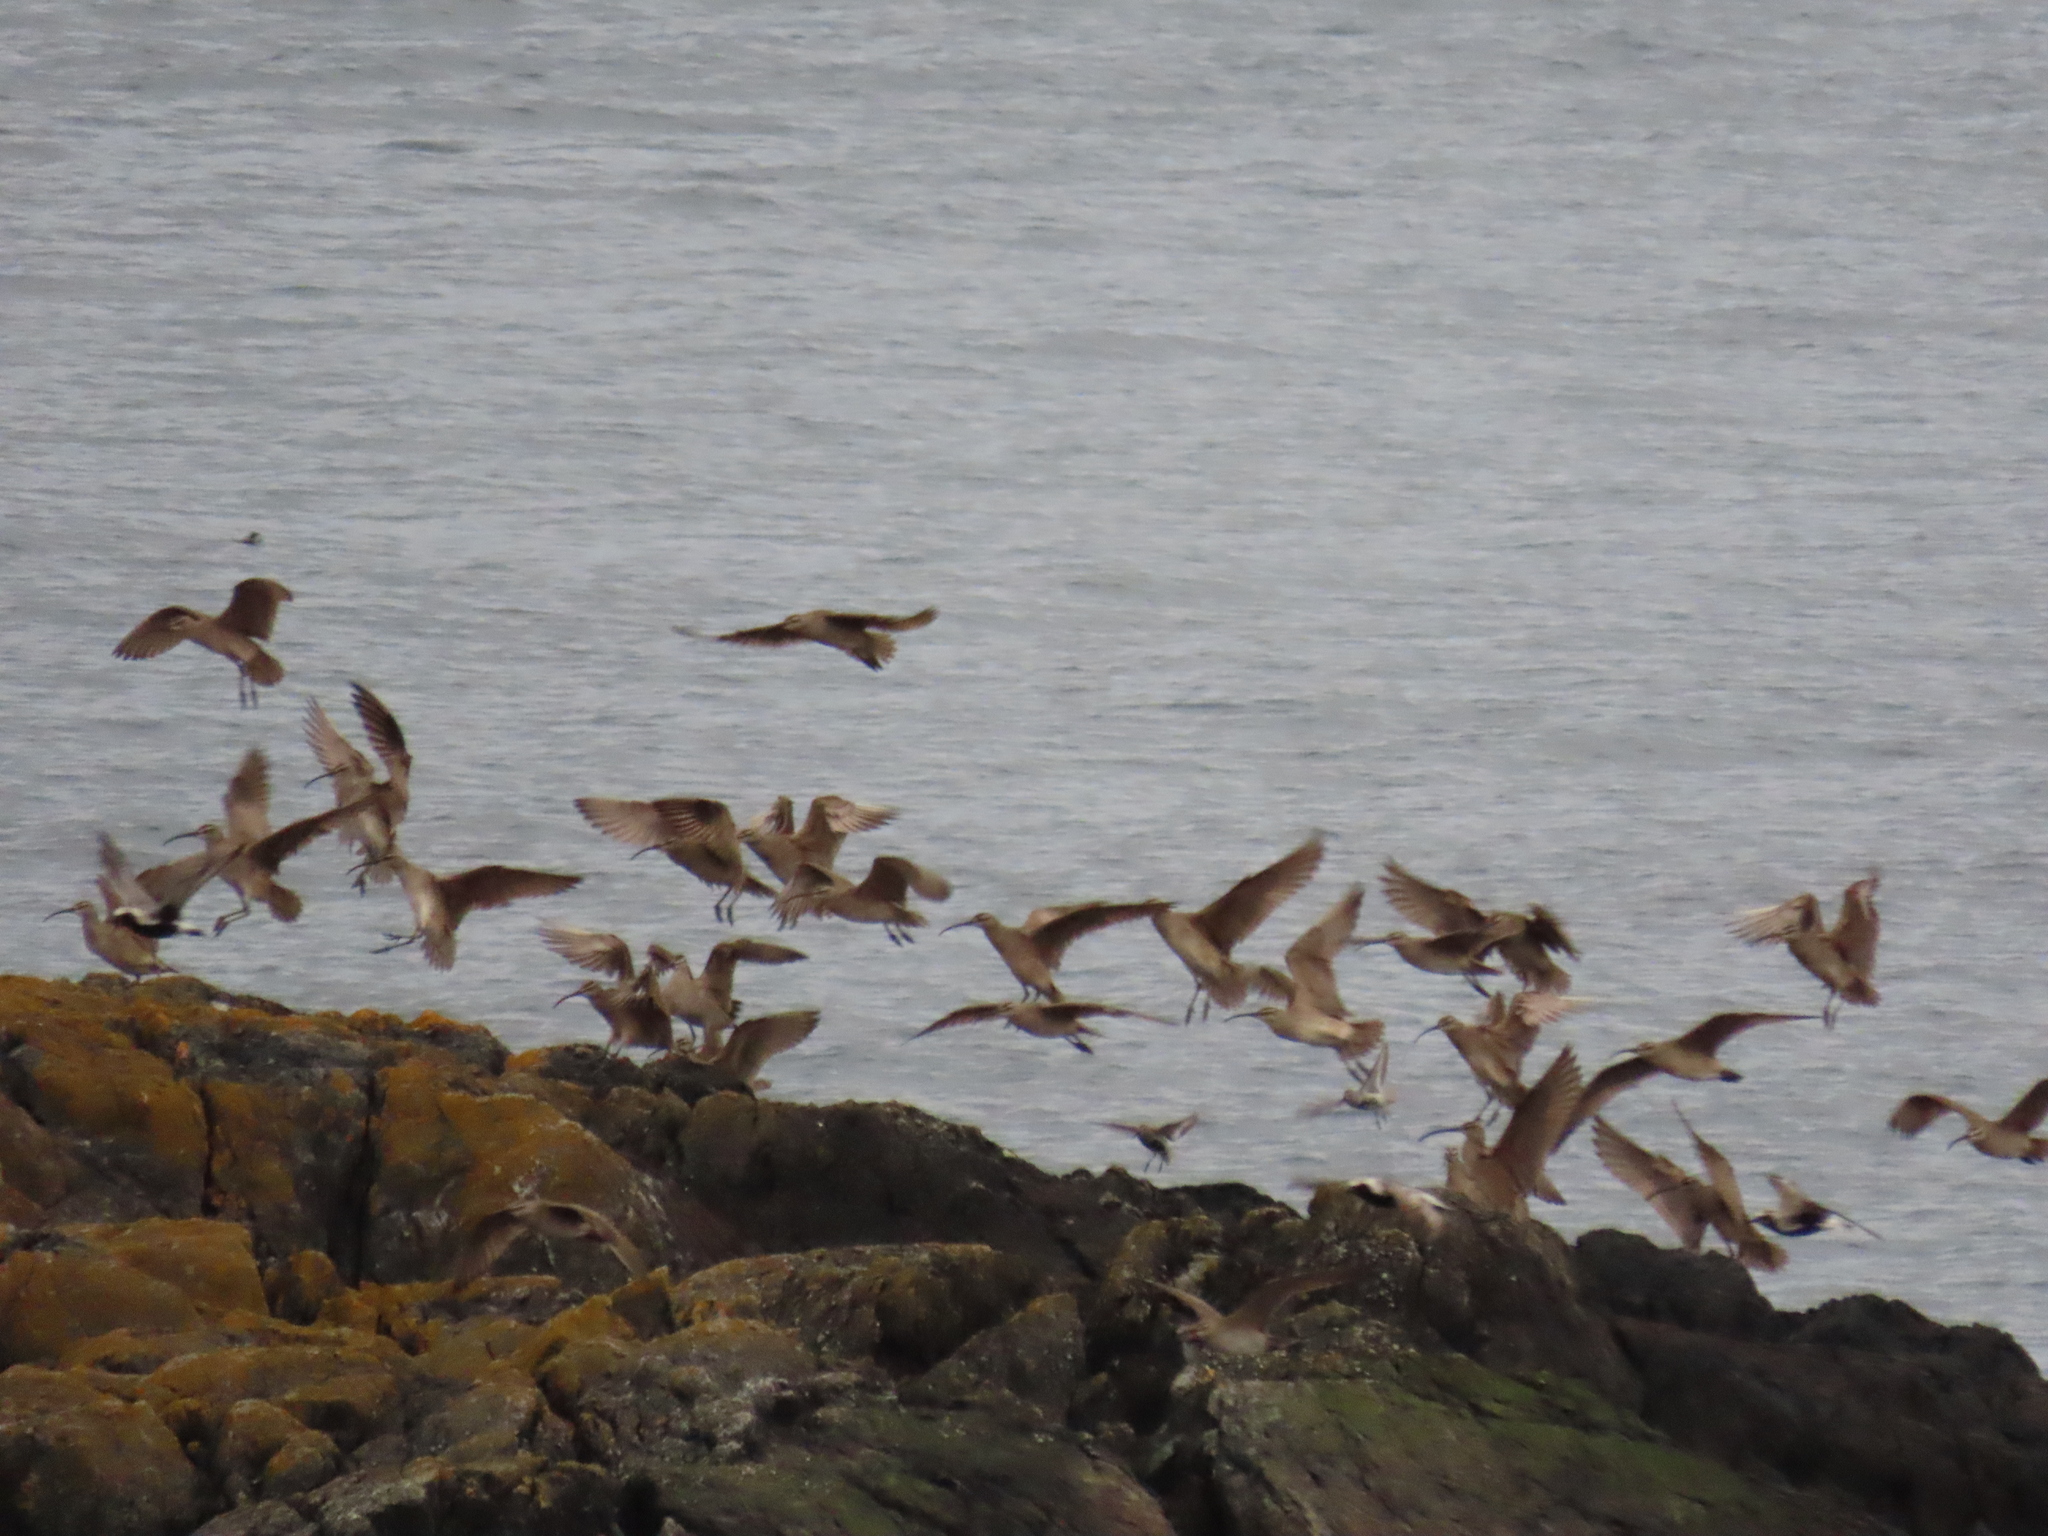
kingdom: Animalia
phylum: Chordata
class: Aves
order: Charadriiformes
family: Scolopacidae
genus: Numenius
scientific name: Numenius phaeopus
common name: Whimbrel
